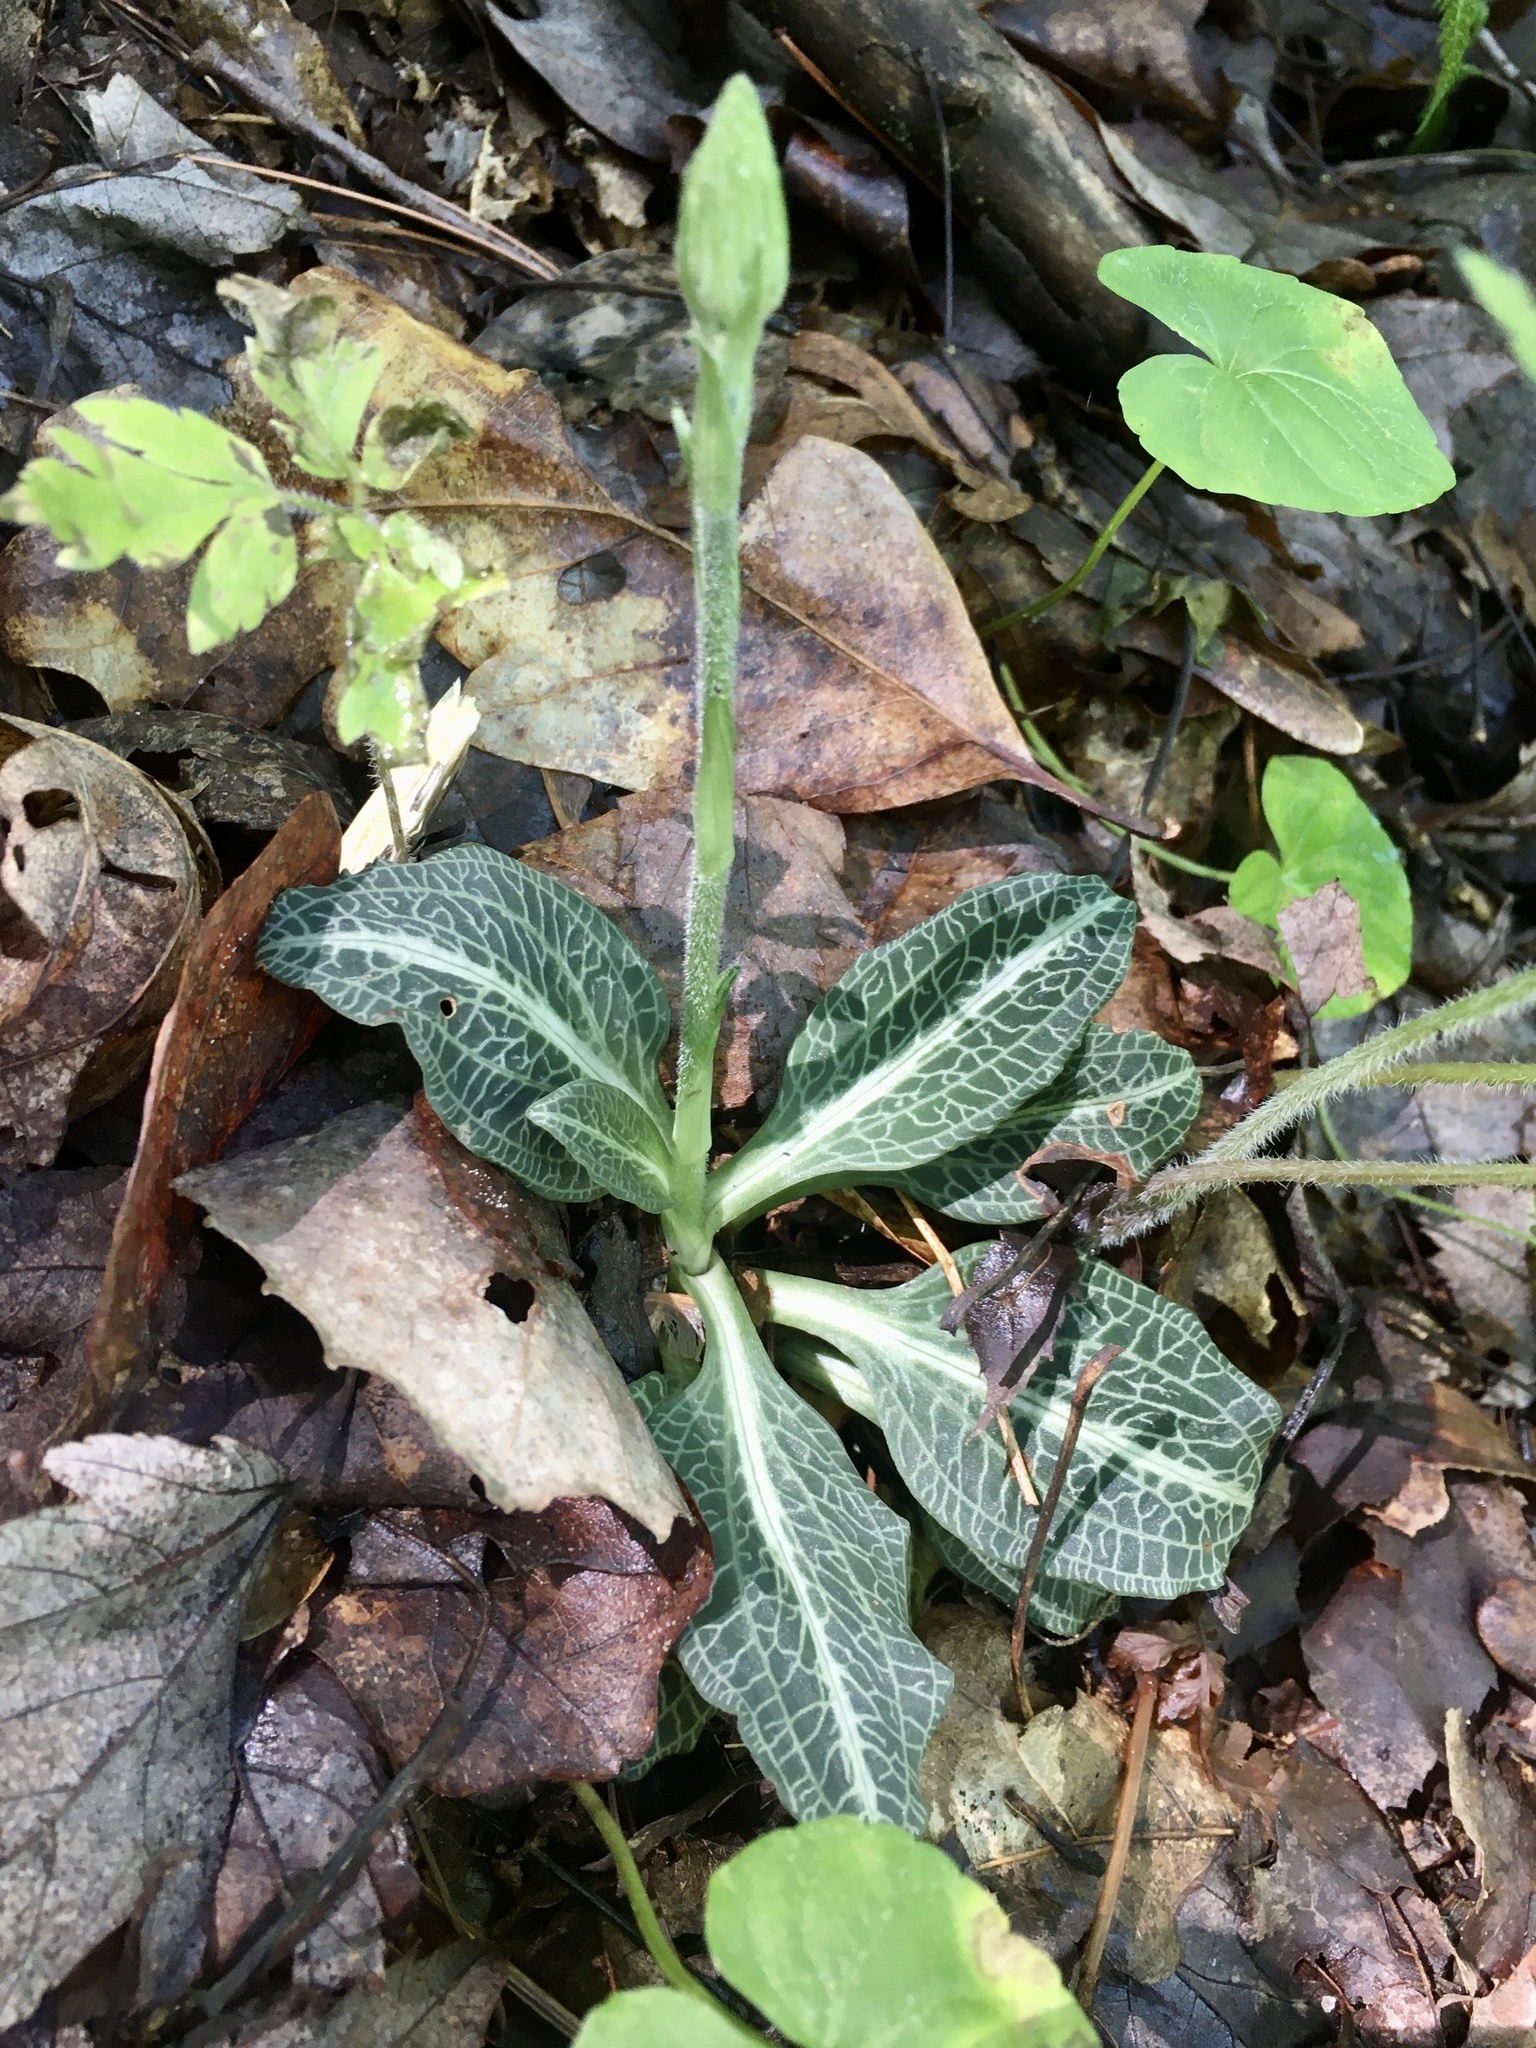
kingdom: Plantae
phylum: Tracheophyta
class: Liliopsida
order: Asparagales
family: Orchidaceae
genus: Goodyera
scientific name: Goodyera pubescens
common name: Downy rattlesnake-plantain
